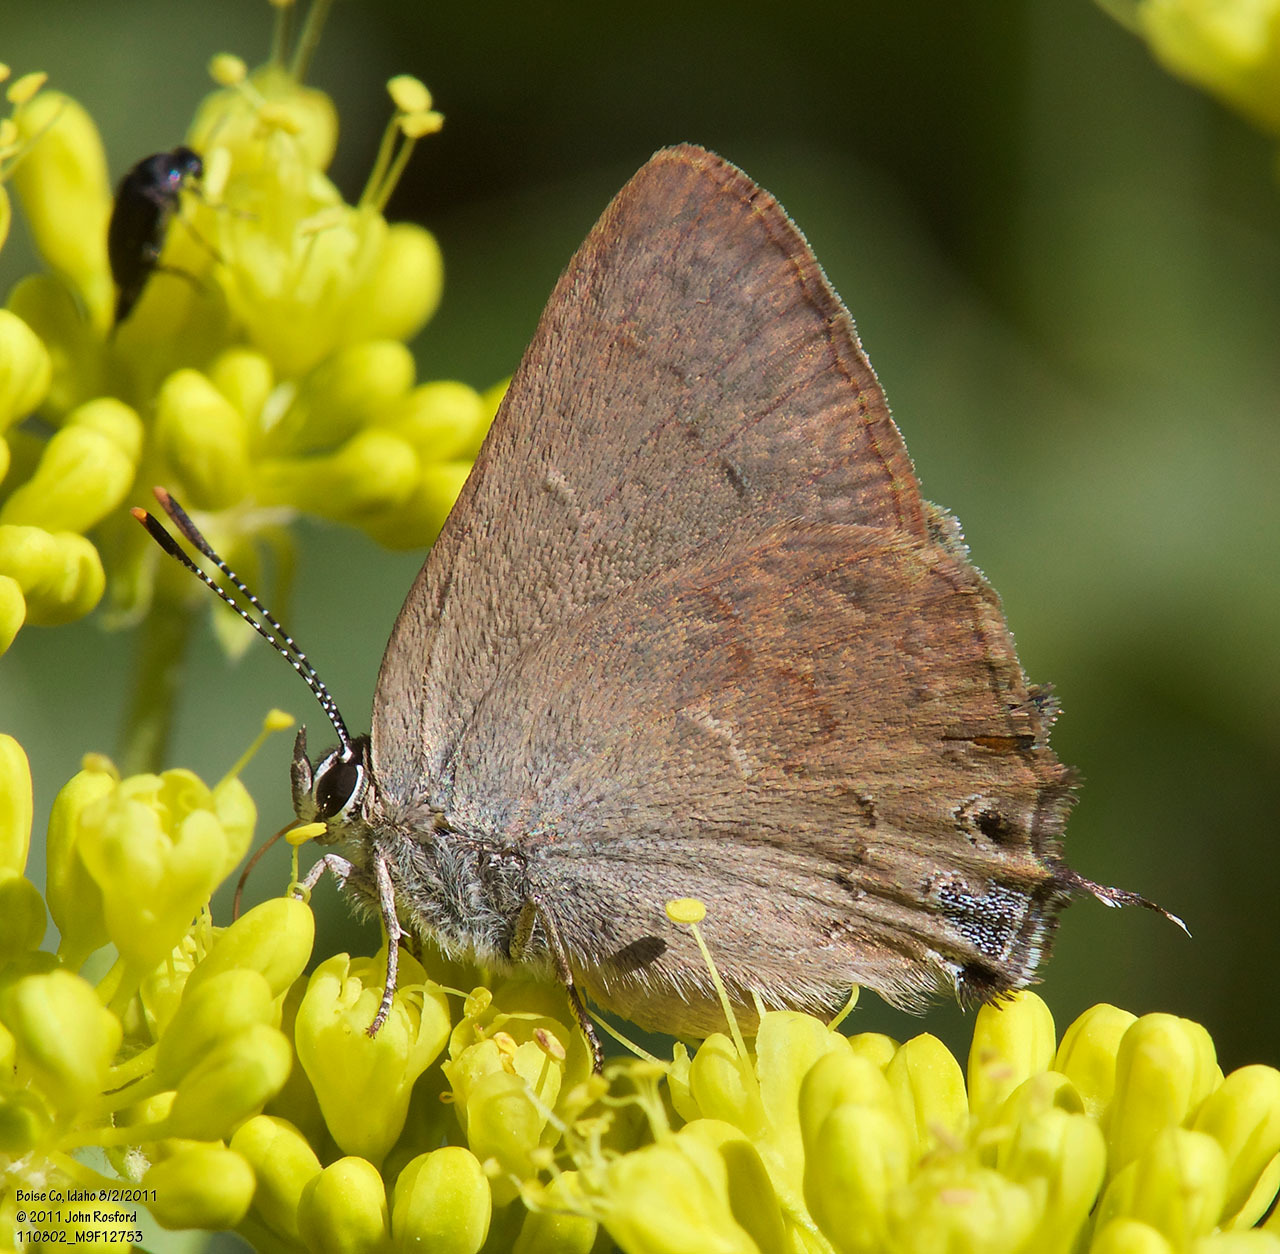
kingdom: Animalia
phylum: Arthropoda
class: Insecta
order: Lepidoptera
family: Lycaenidae
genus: Strymon
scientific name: Strymon saepium
